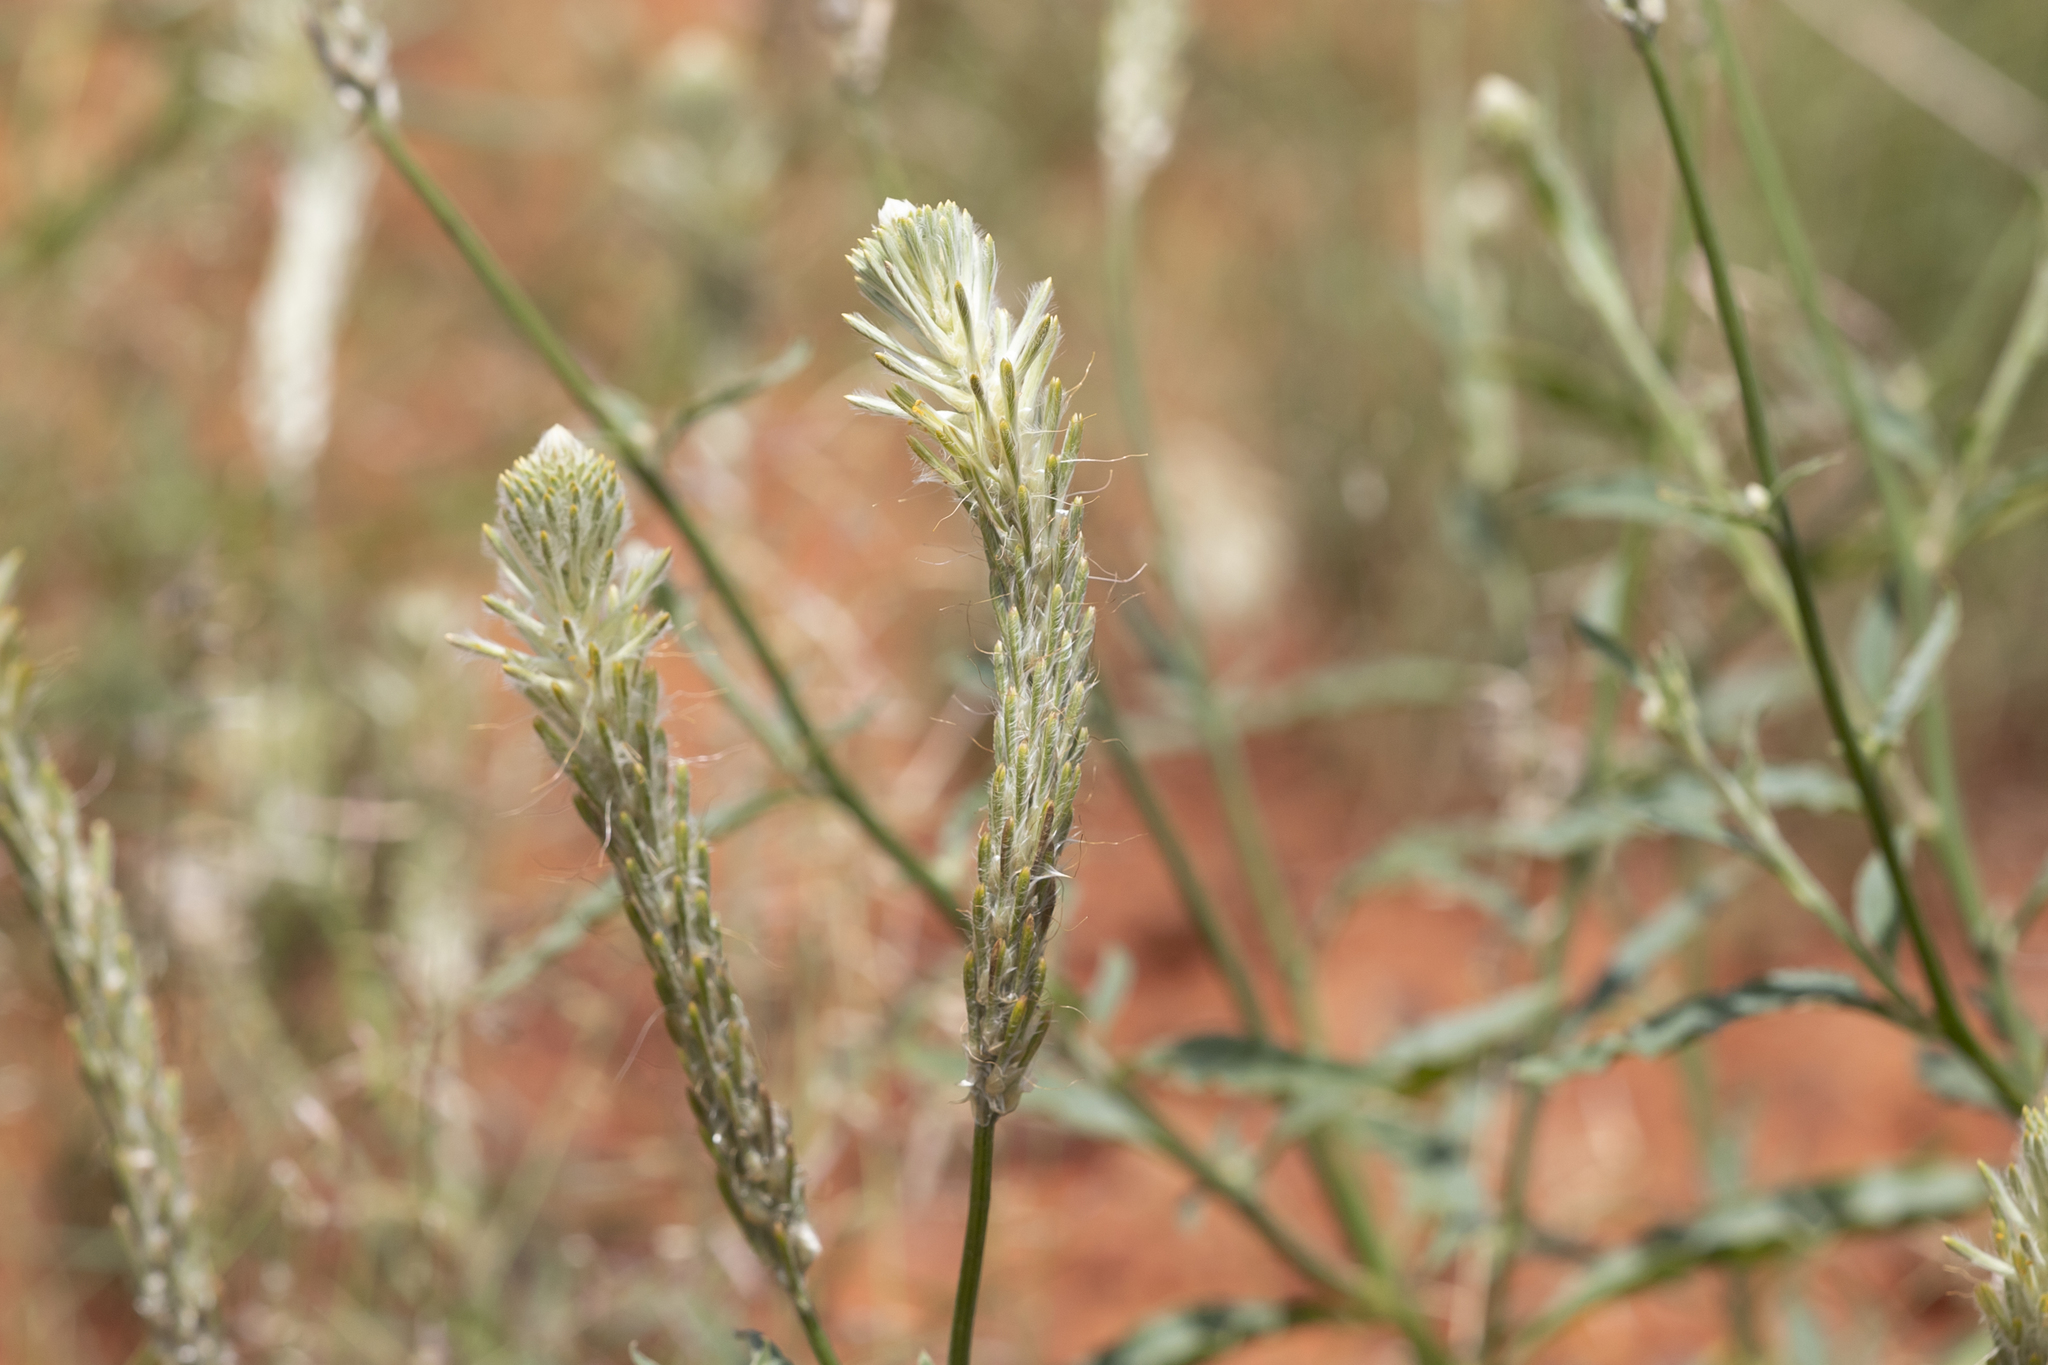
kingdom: Plantae
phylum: Tracheophyta
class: Magnoliopsida
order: Caryophyllales
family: Amaranthaceae
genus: Ptilotus
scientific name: Ptilotus polystachyus
